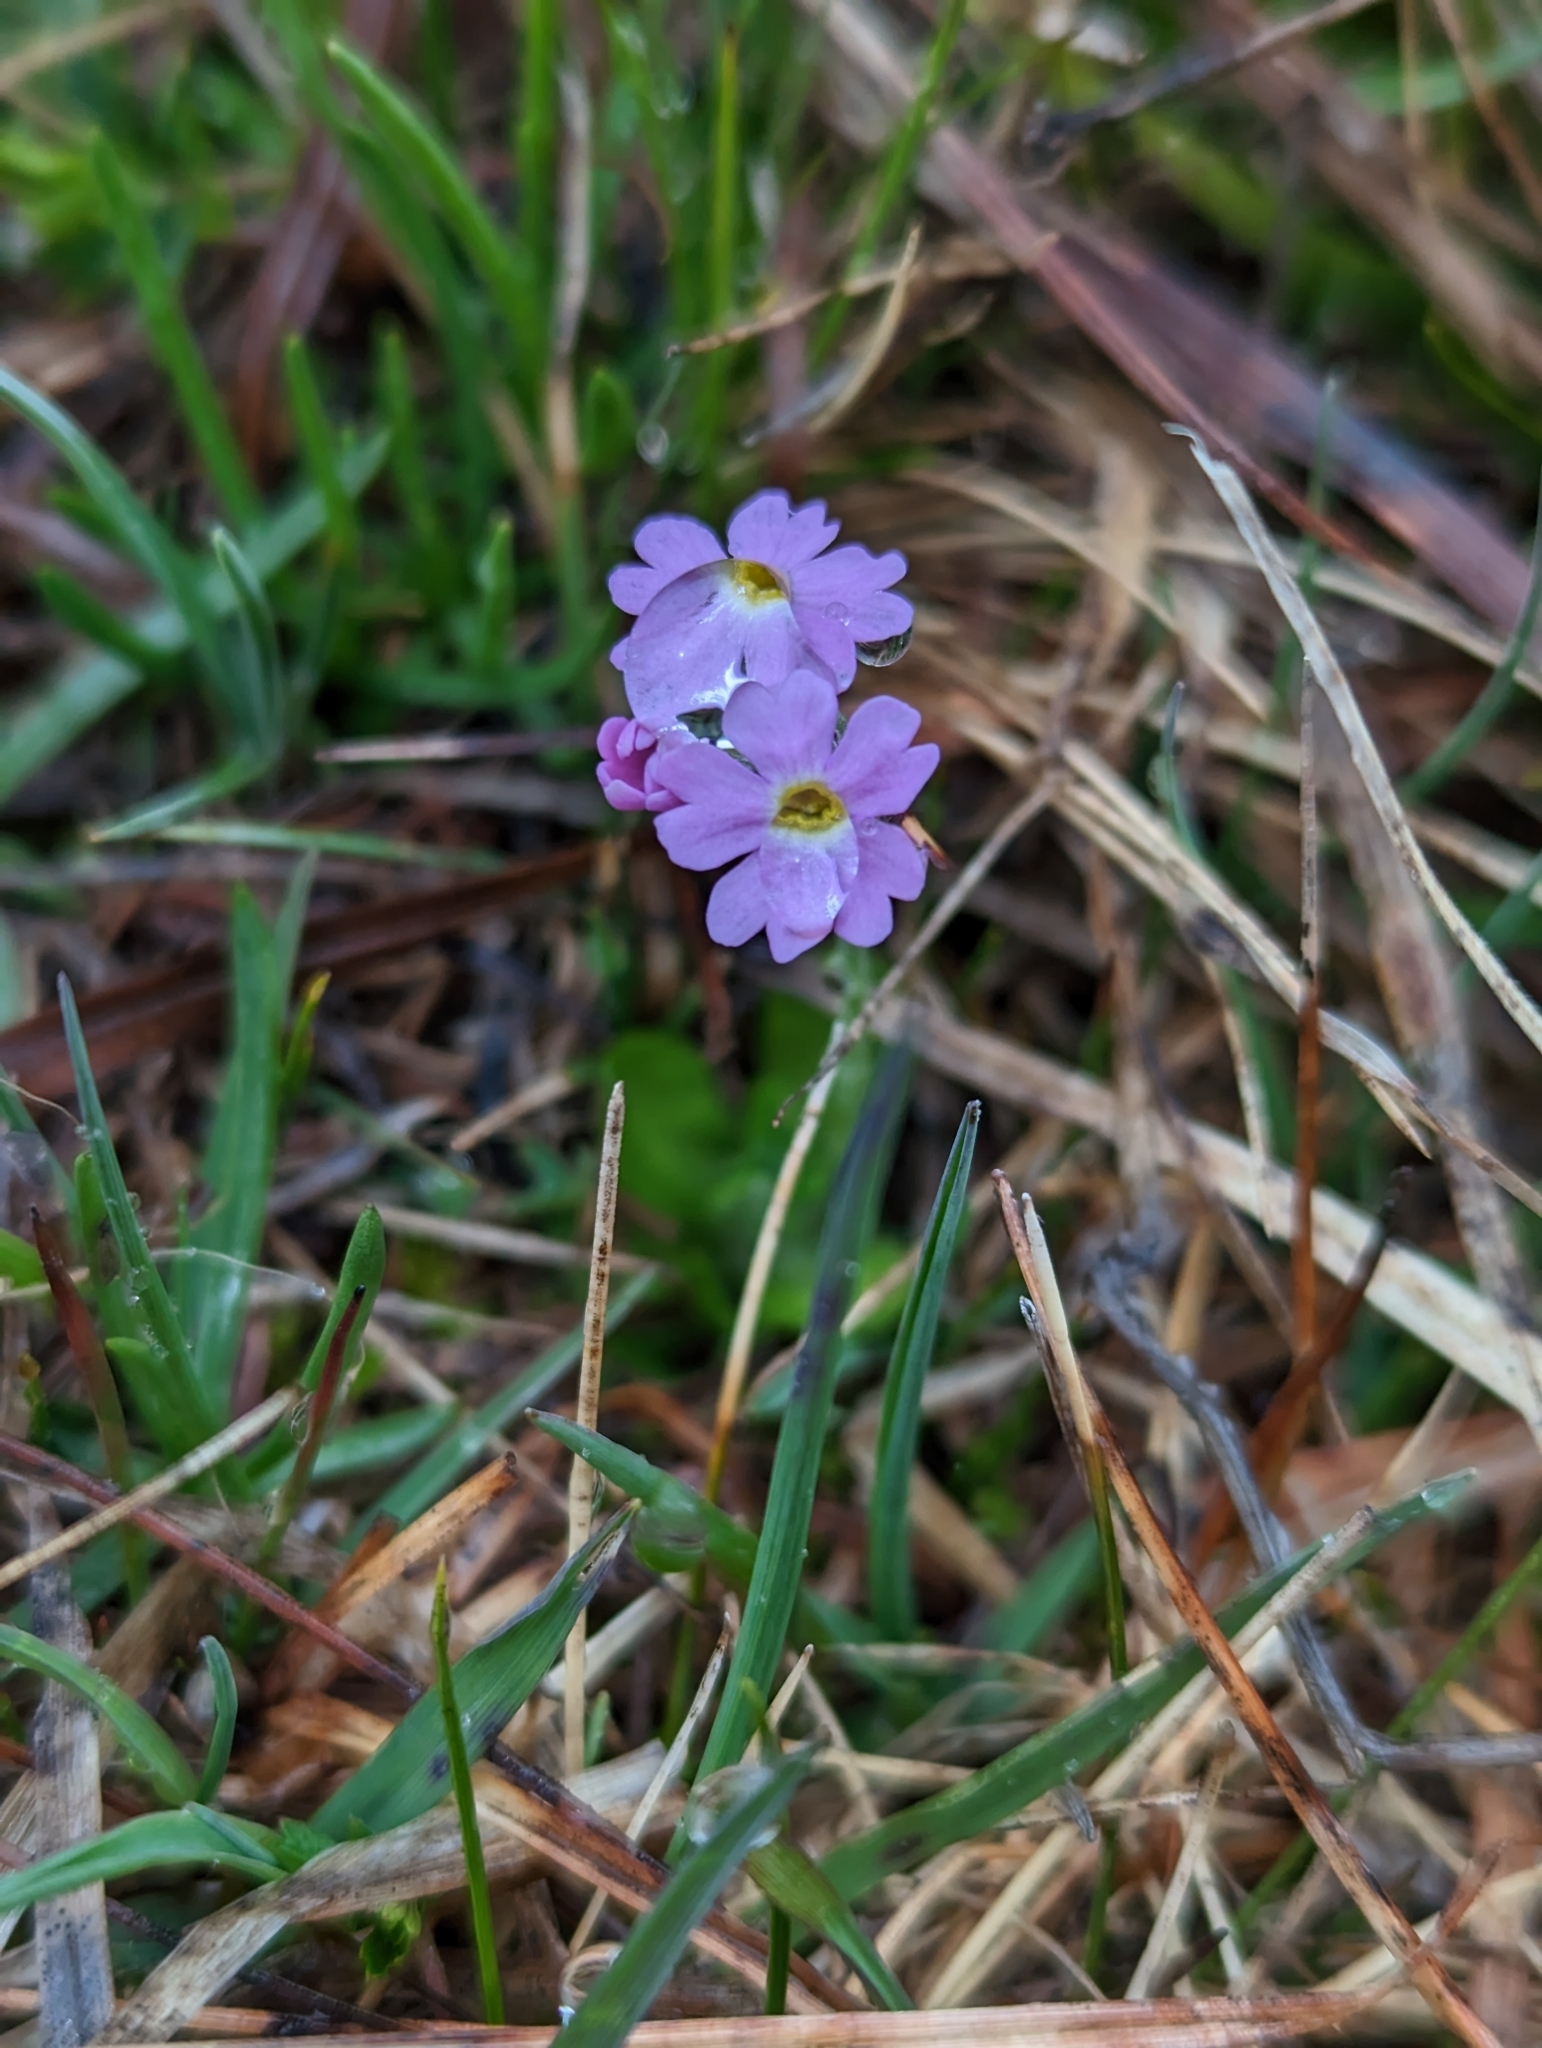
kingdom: Plantae
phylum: Tracheophyta
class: Magnoliopsida
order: Ericales
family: Primulaceae
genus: Primula
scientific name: Primula farinosa
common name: Bird's-eye primrose
